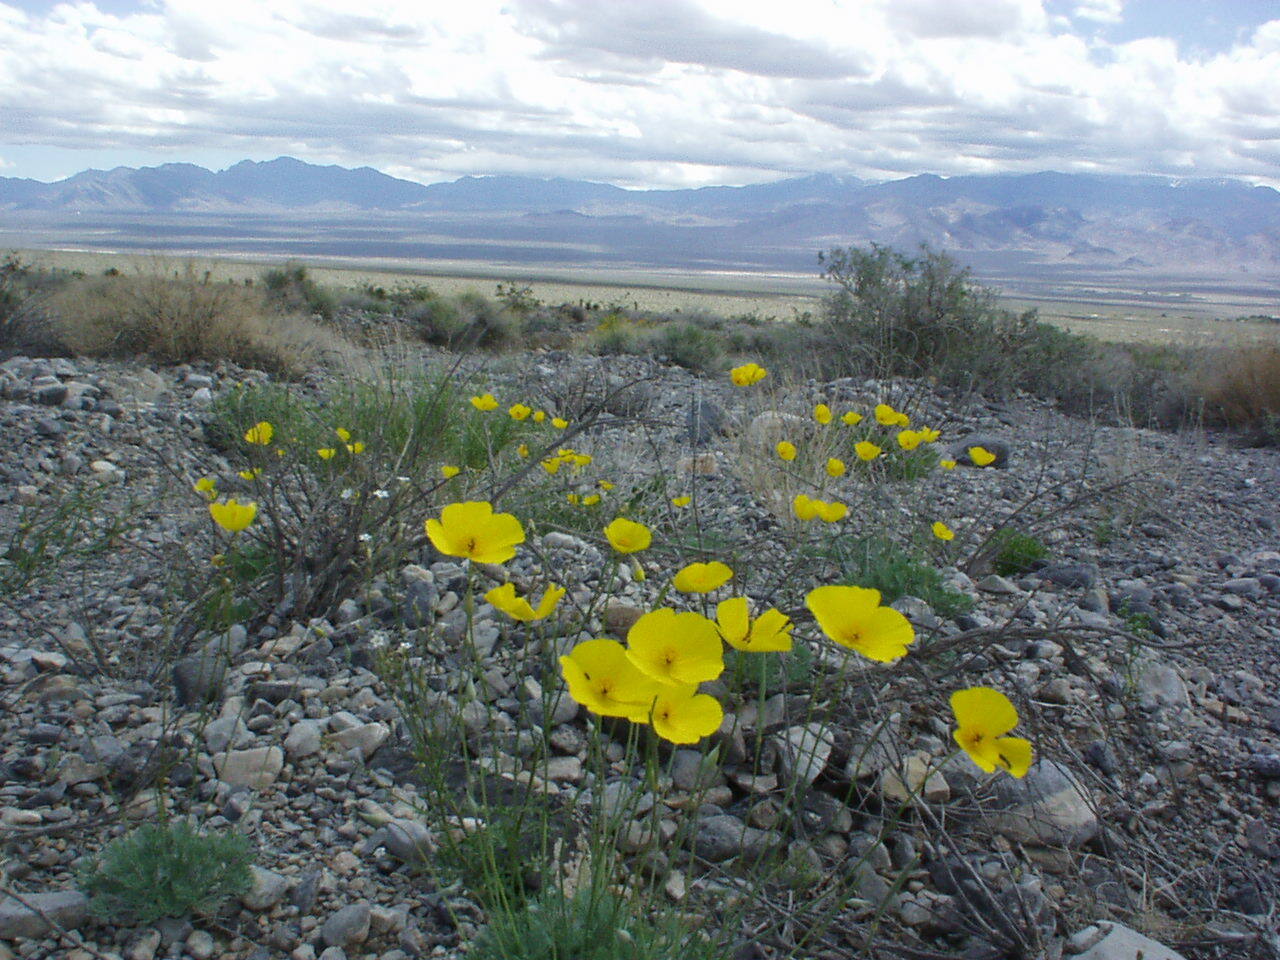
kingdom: Plantae
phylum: Tracheophyta
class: Magnoliopsida
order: Ranunculales
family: Papaveraceae
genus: Eschscholzia
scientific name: Eschscholzia glyptosperma
